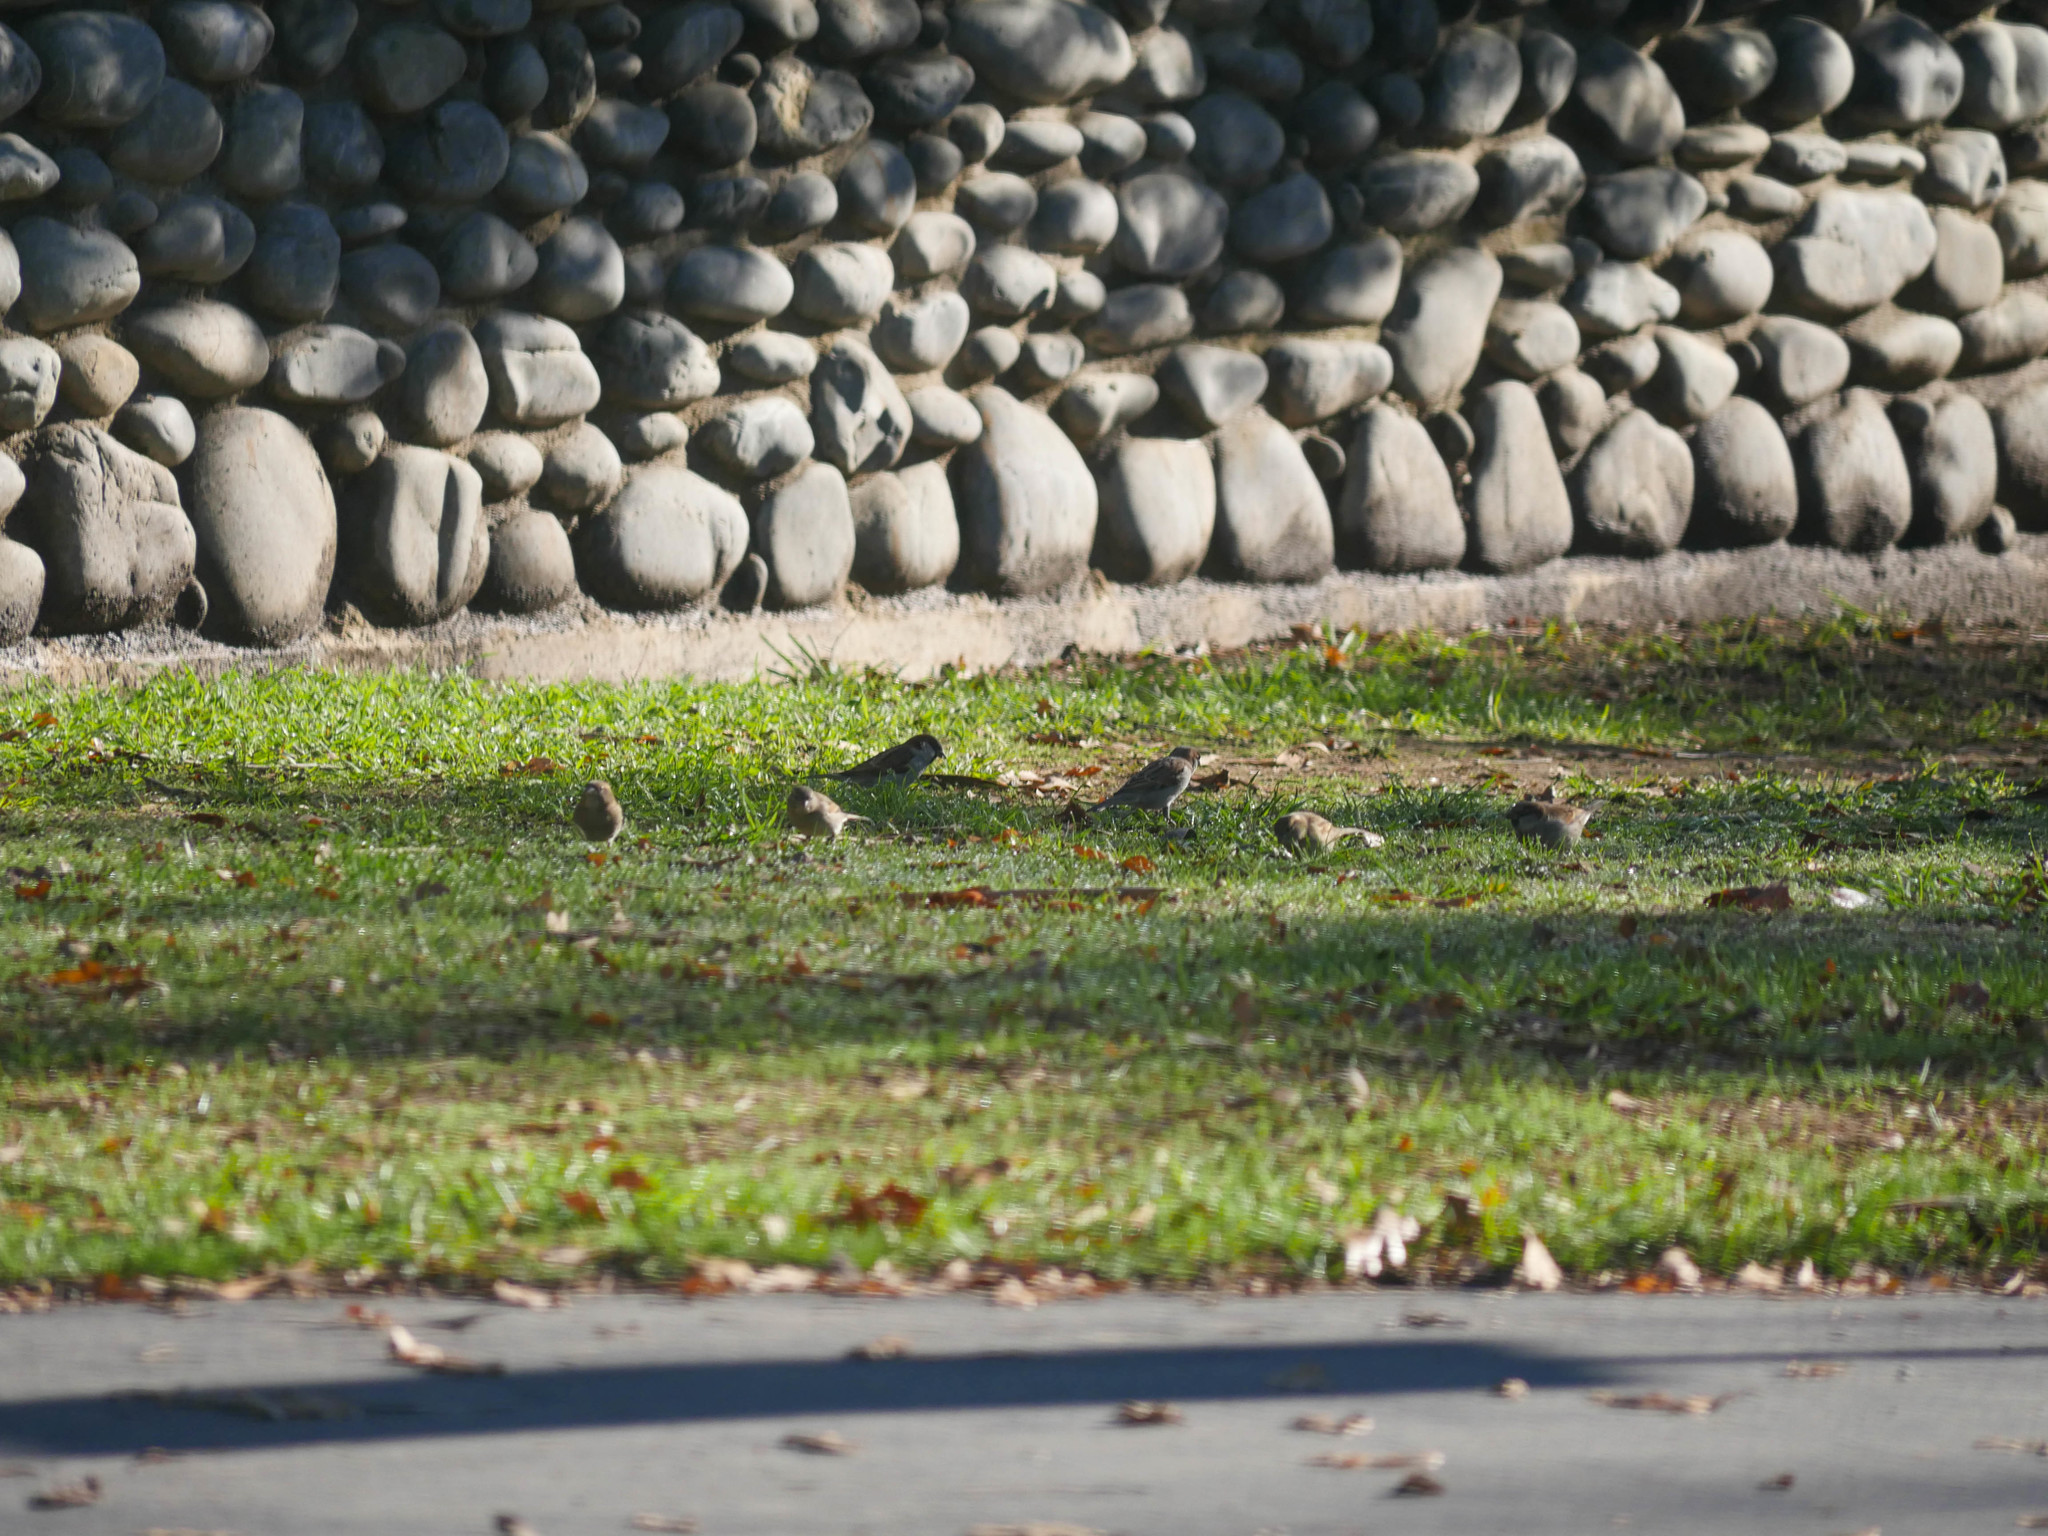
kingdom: Animalia
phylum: Chordata
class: Aves
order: Passeriformes
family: Passeridae
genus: Passer
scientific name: Passer domesticus
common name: House sparrow
